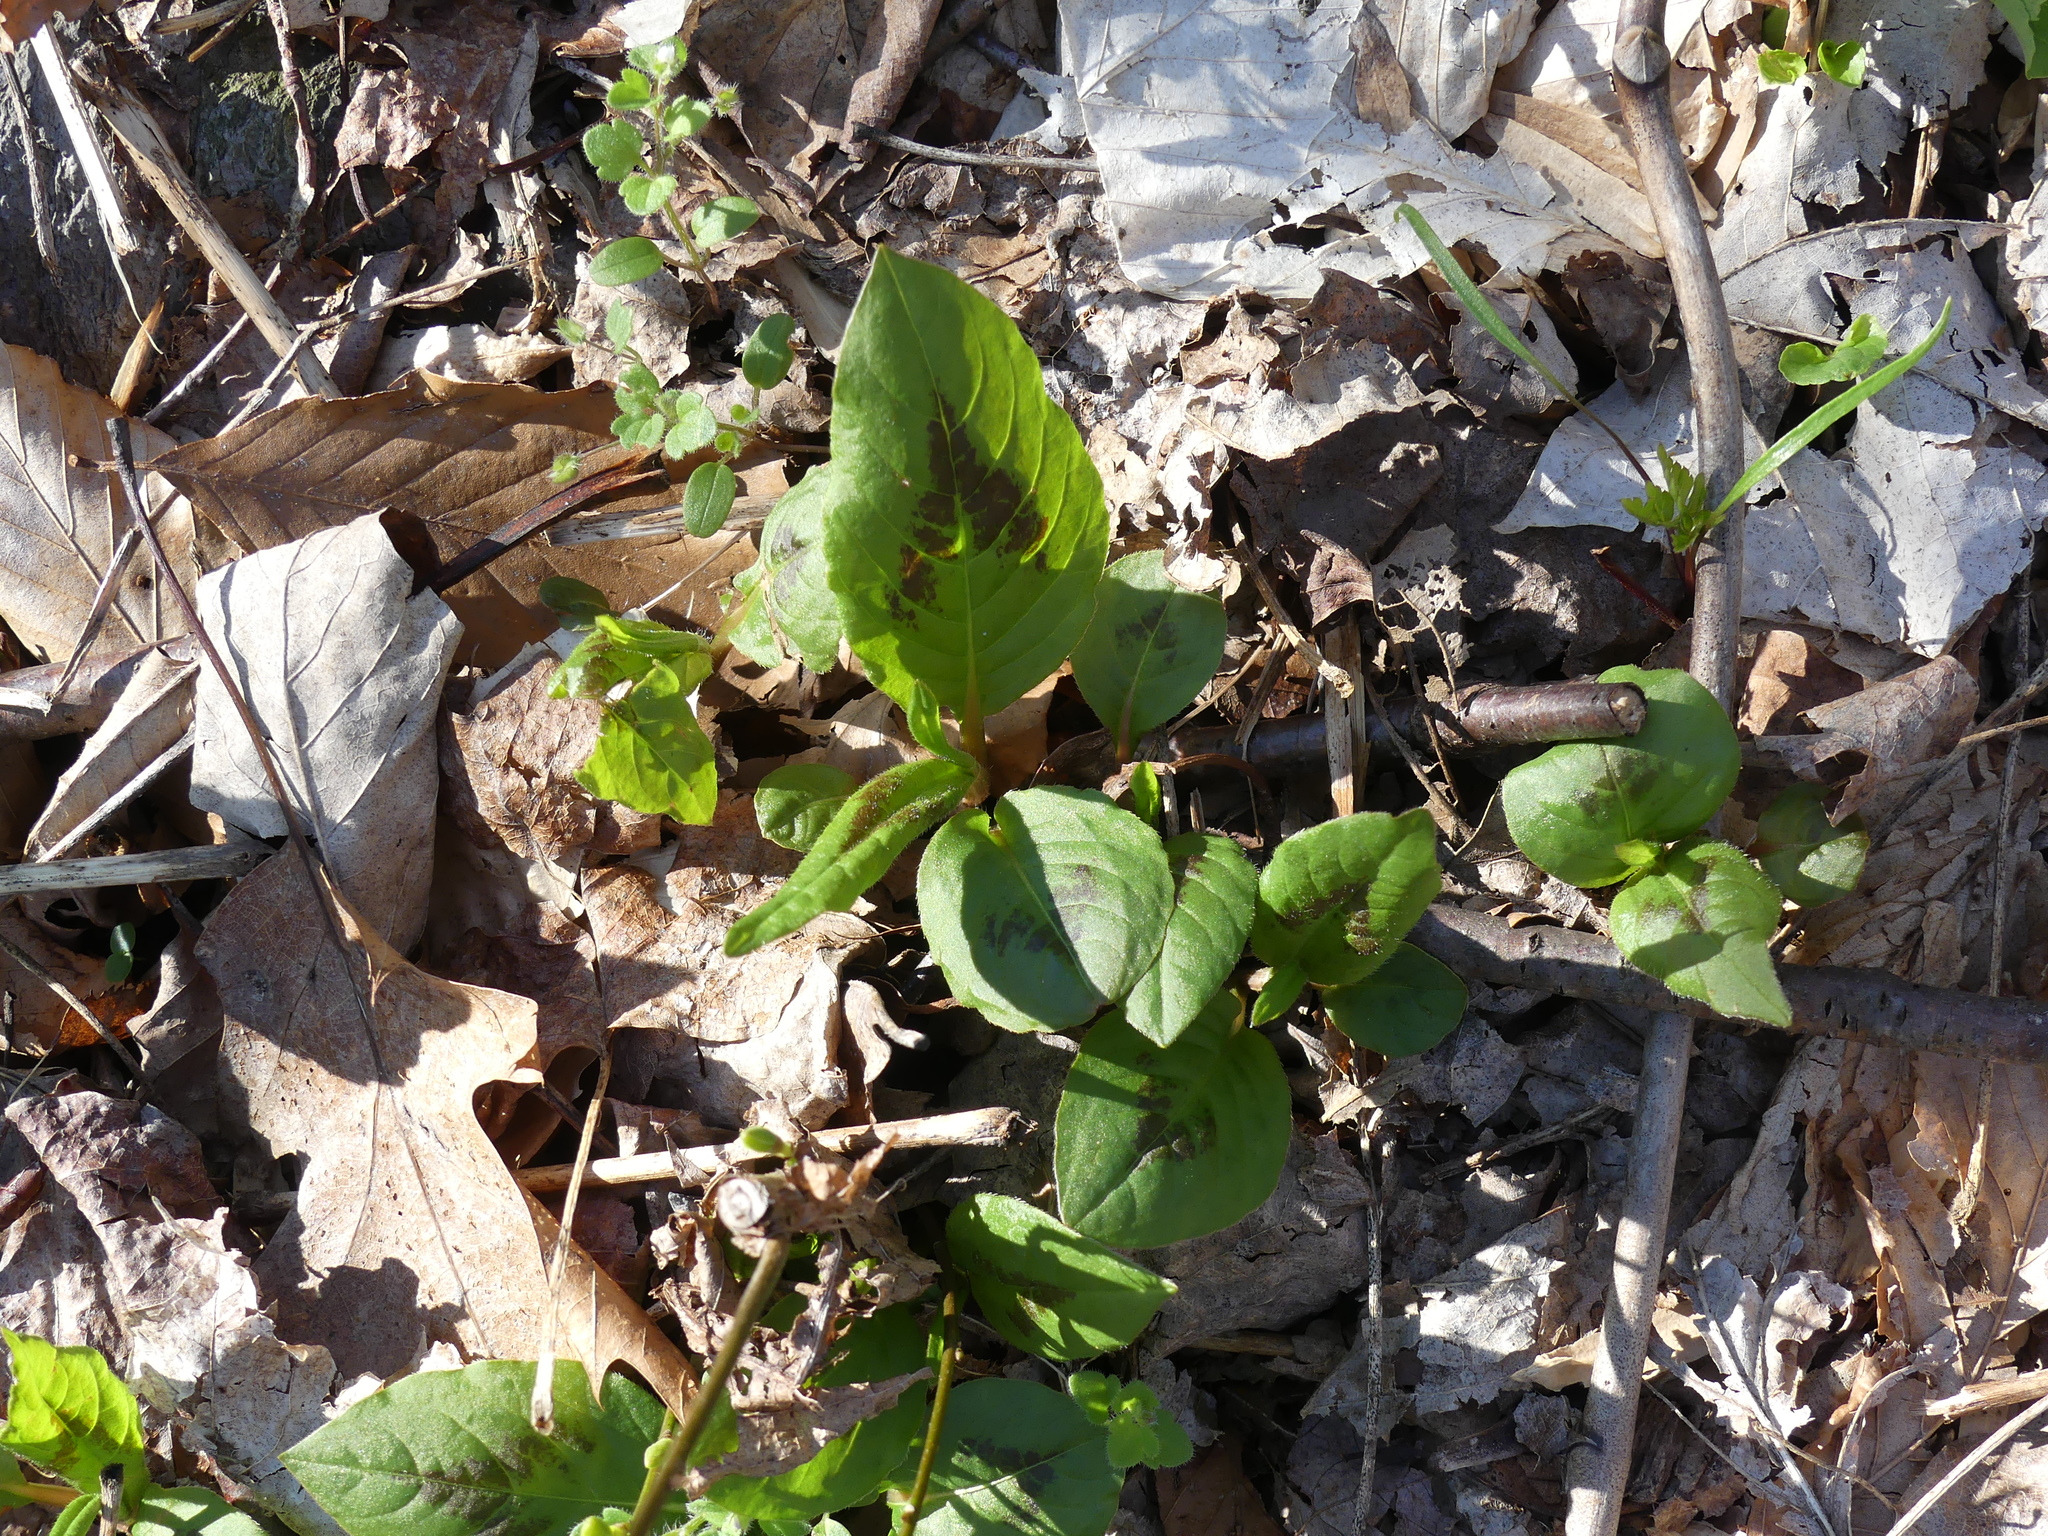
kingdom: Plantae
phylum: Tracheophyta
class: Magnoliopsida
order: Caryophyllales
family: Polygonaceae
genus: Persicaria
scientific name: Persicaria virginiana
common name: Jumpseed
